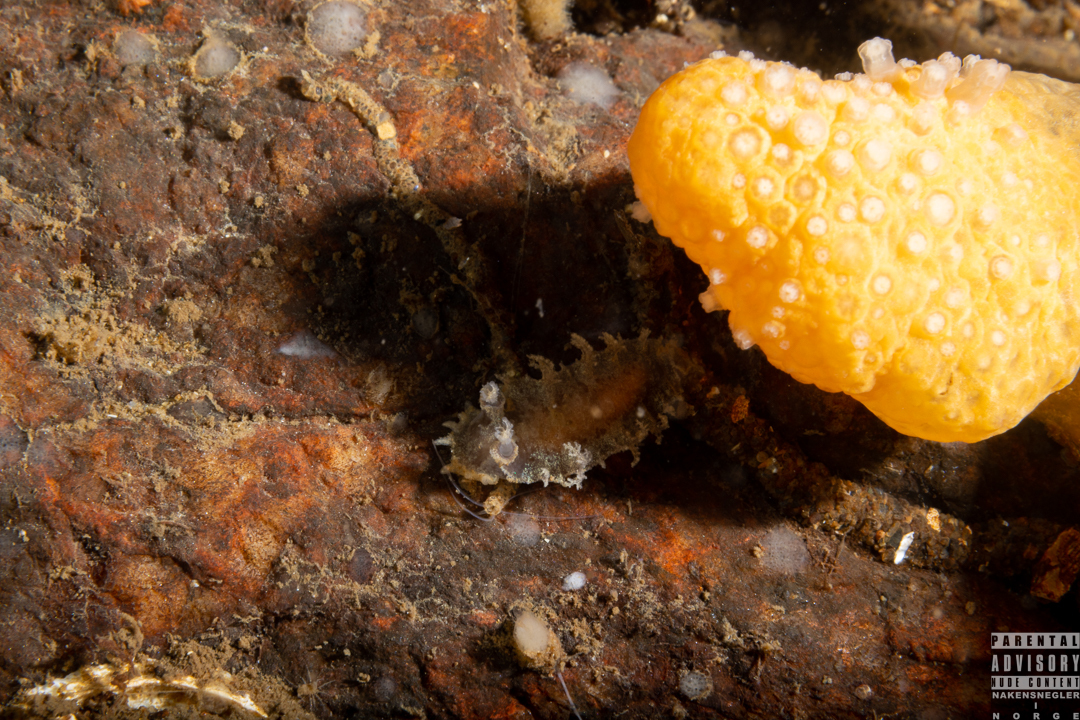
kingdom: Animalia
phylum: Mollusca
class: Gastropoda
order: Nudibranchia
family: Tritoniidae
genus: Duvaucelia
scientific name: Duvaucelia plebeia
